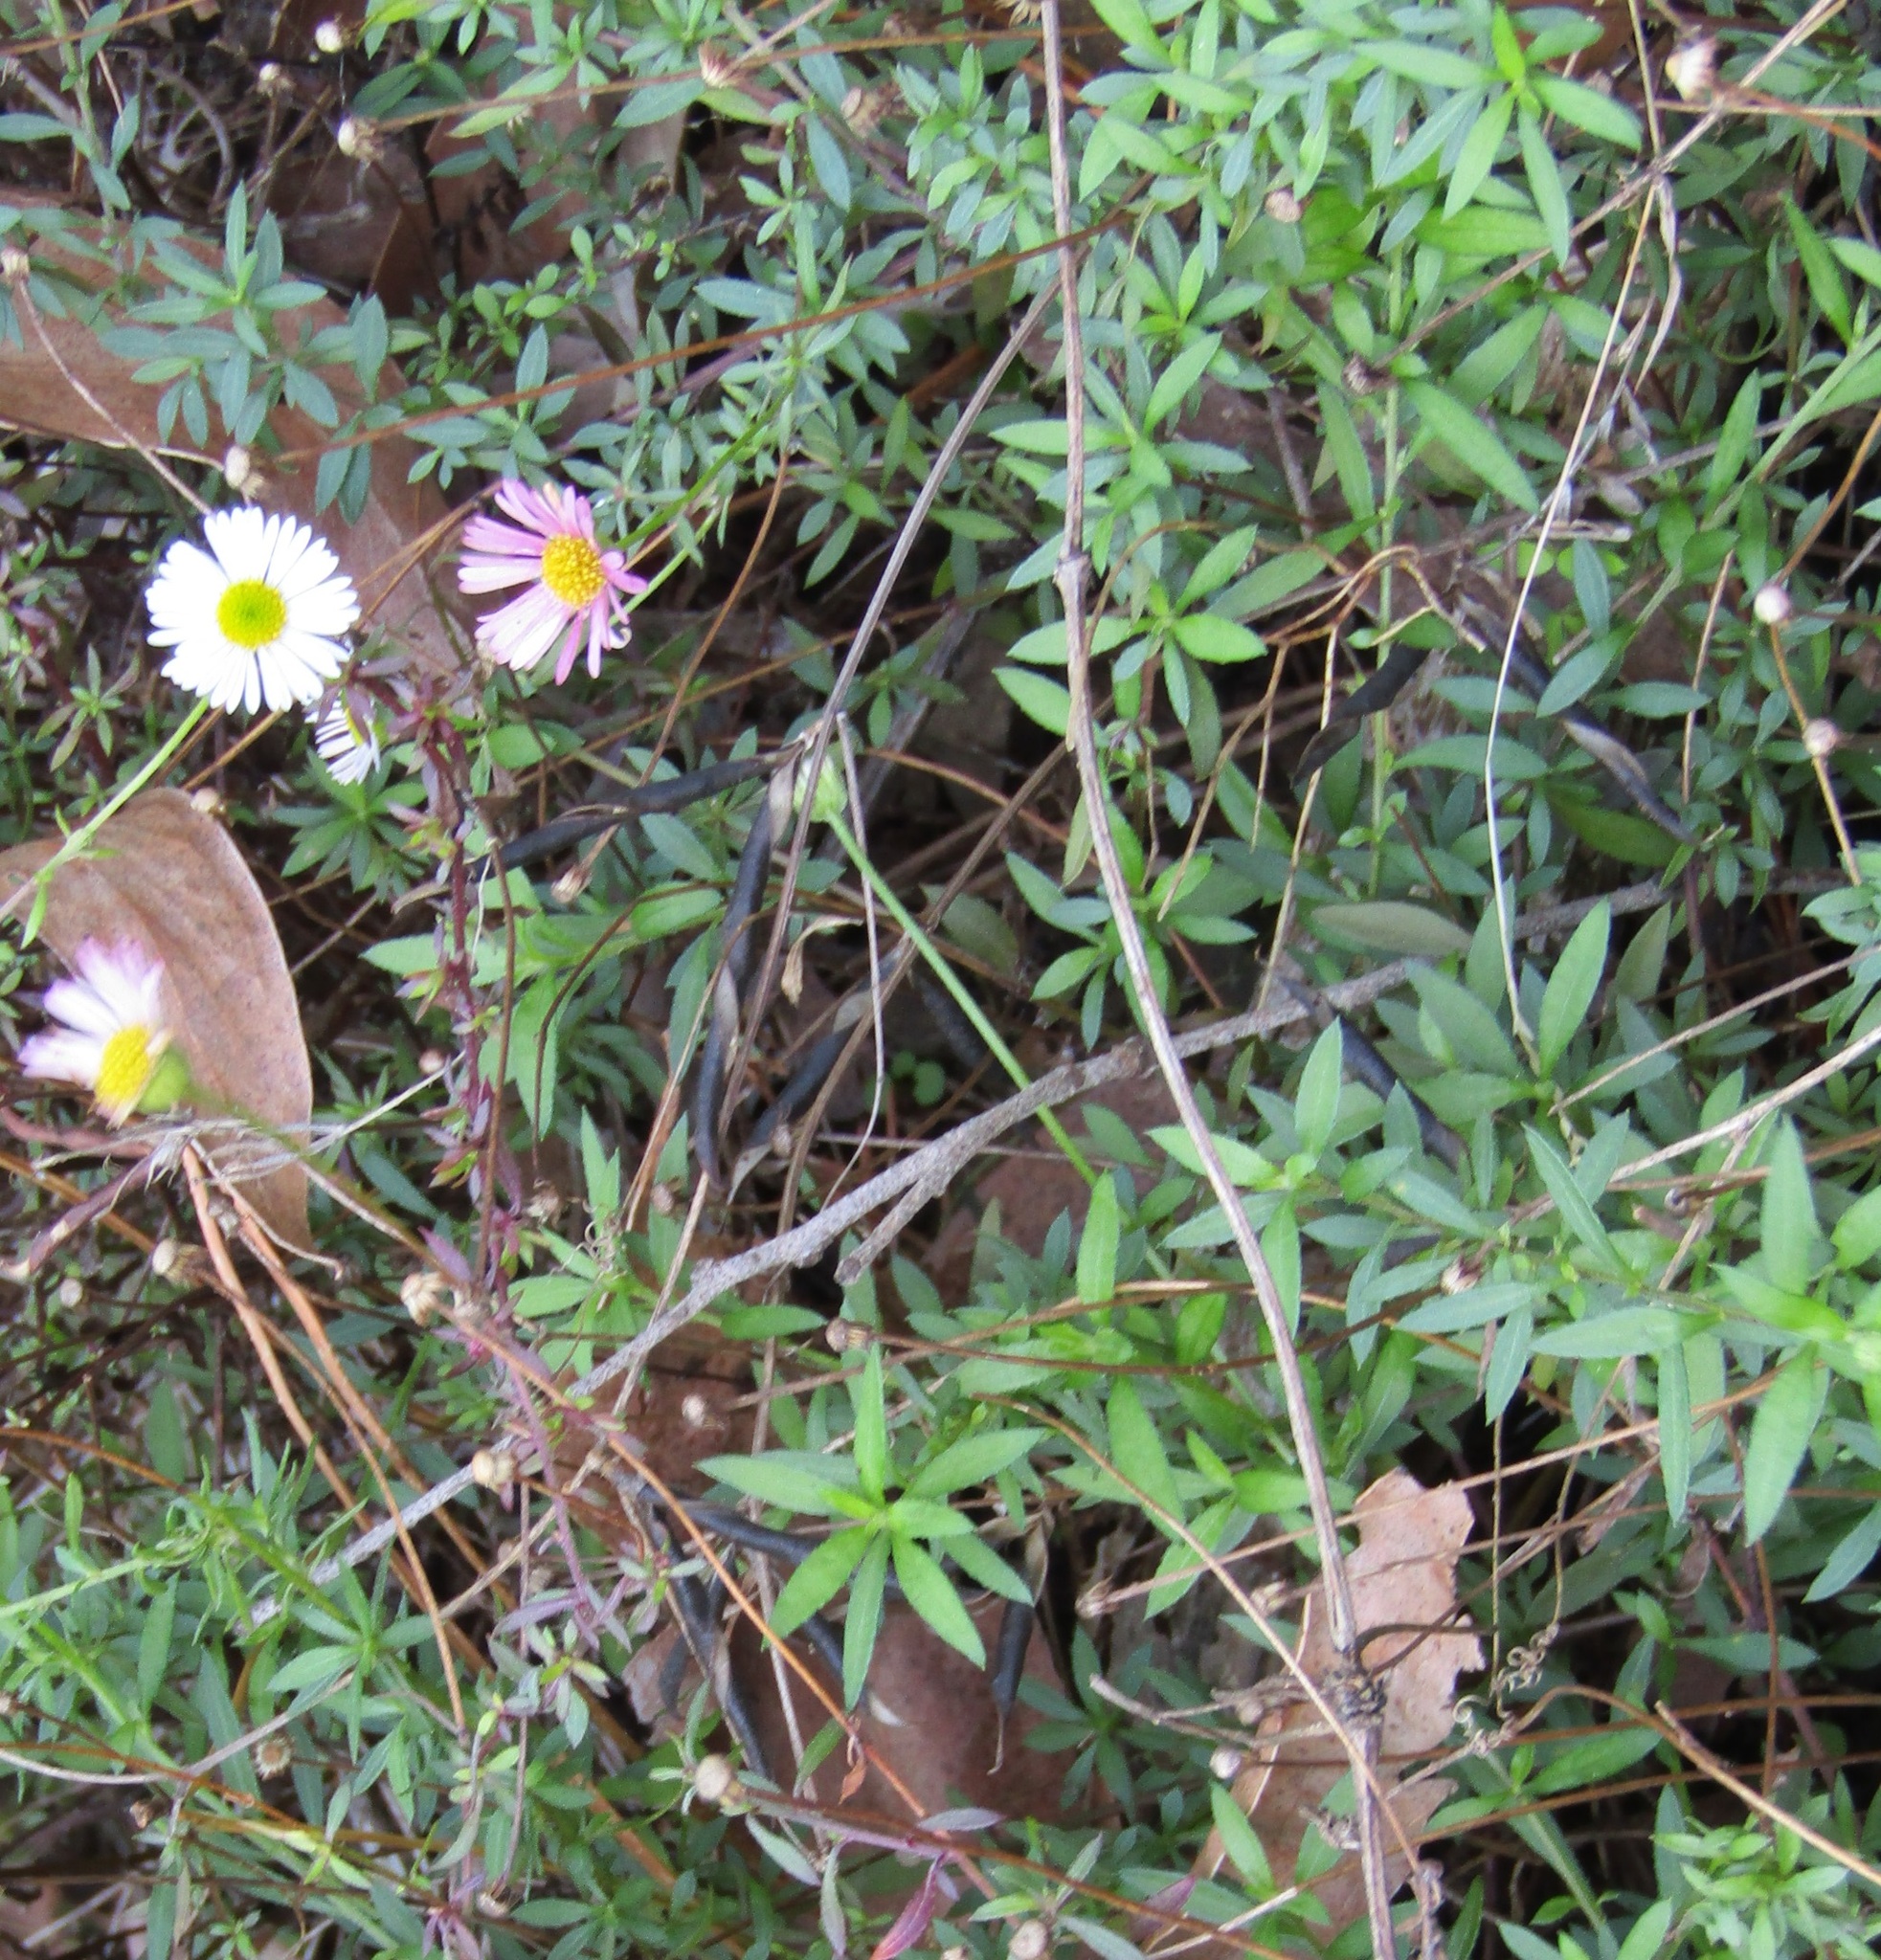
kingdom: Plantae
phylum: Tracheophyta
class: Magnoliopsida
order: Asterales
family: Asteraceae
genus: Erigeron
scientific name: Erigeron karvinskianus
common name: Mexican fleabane
